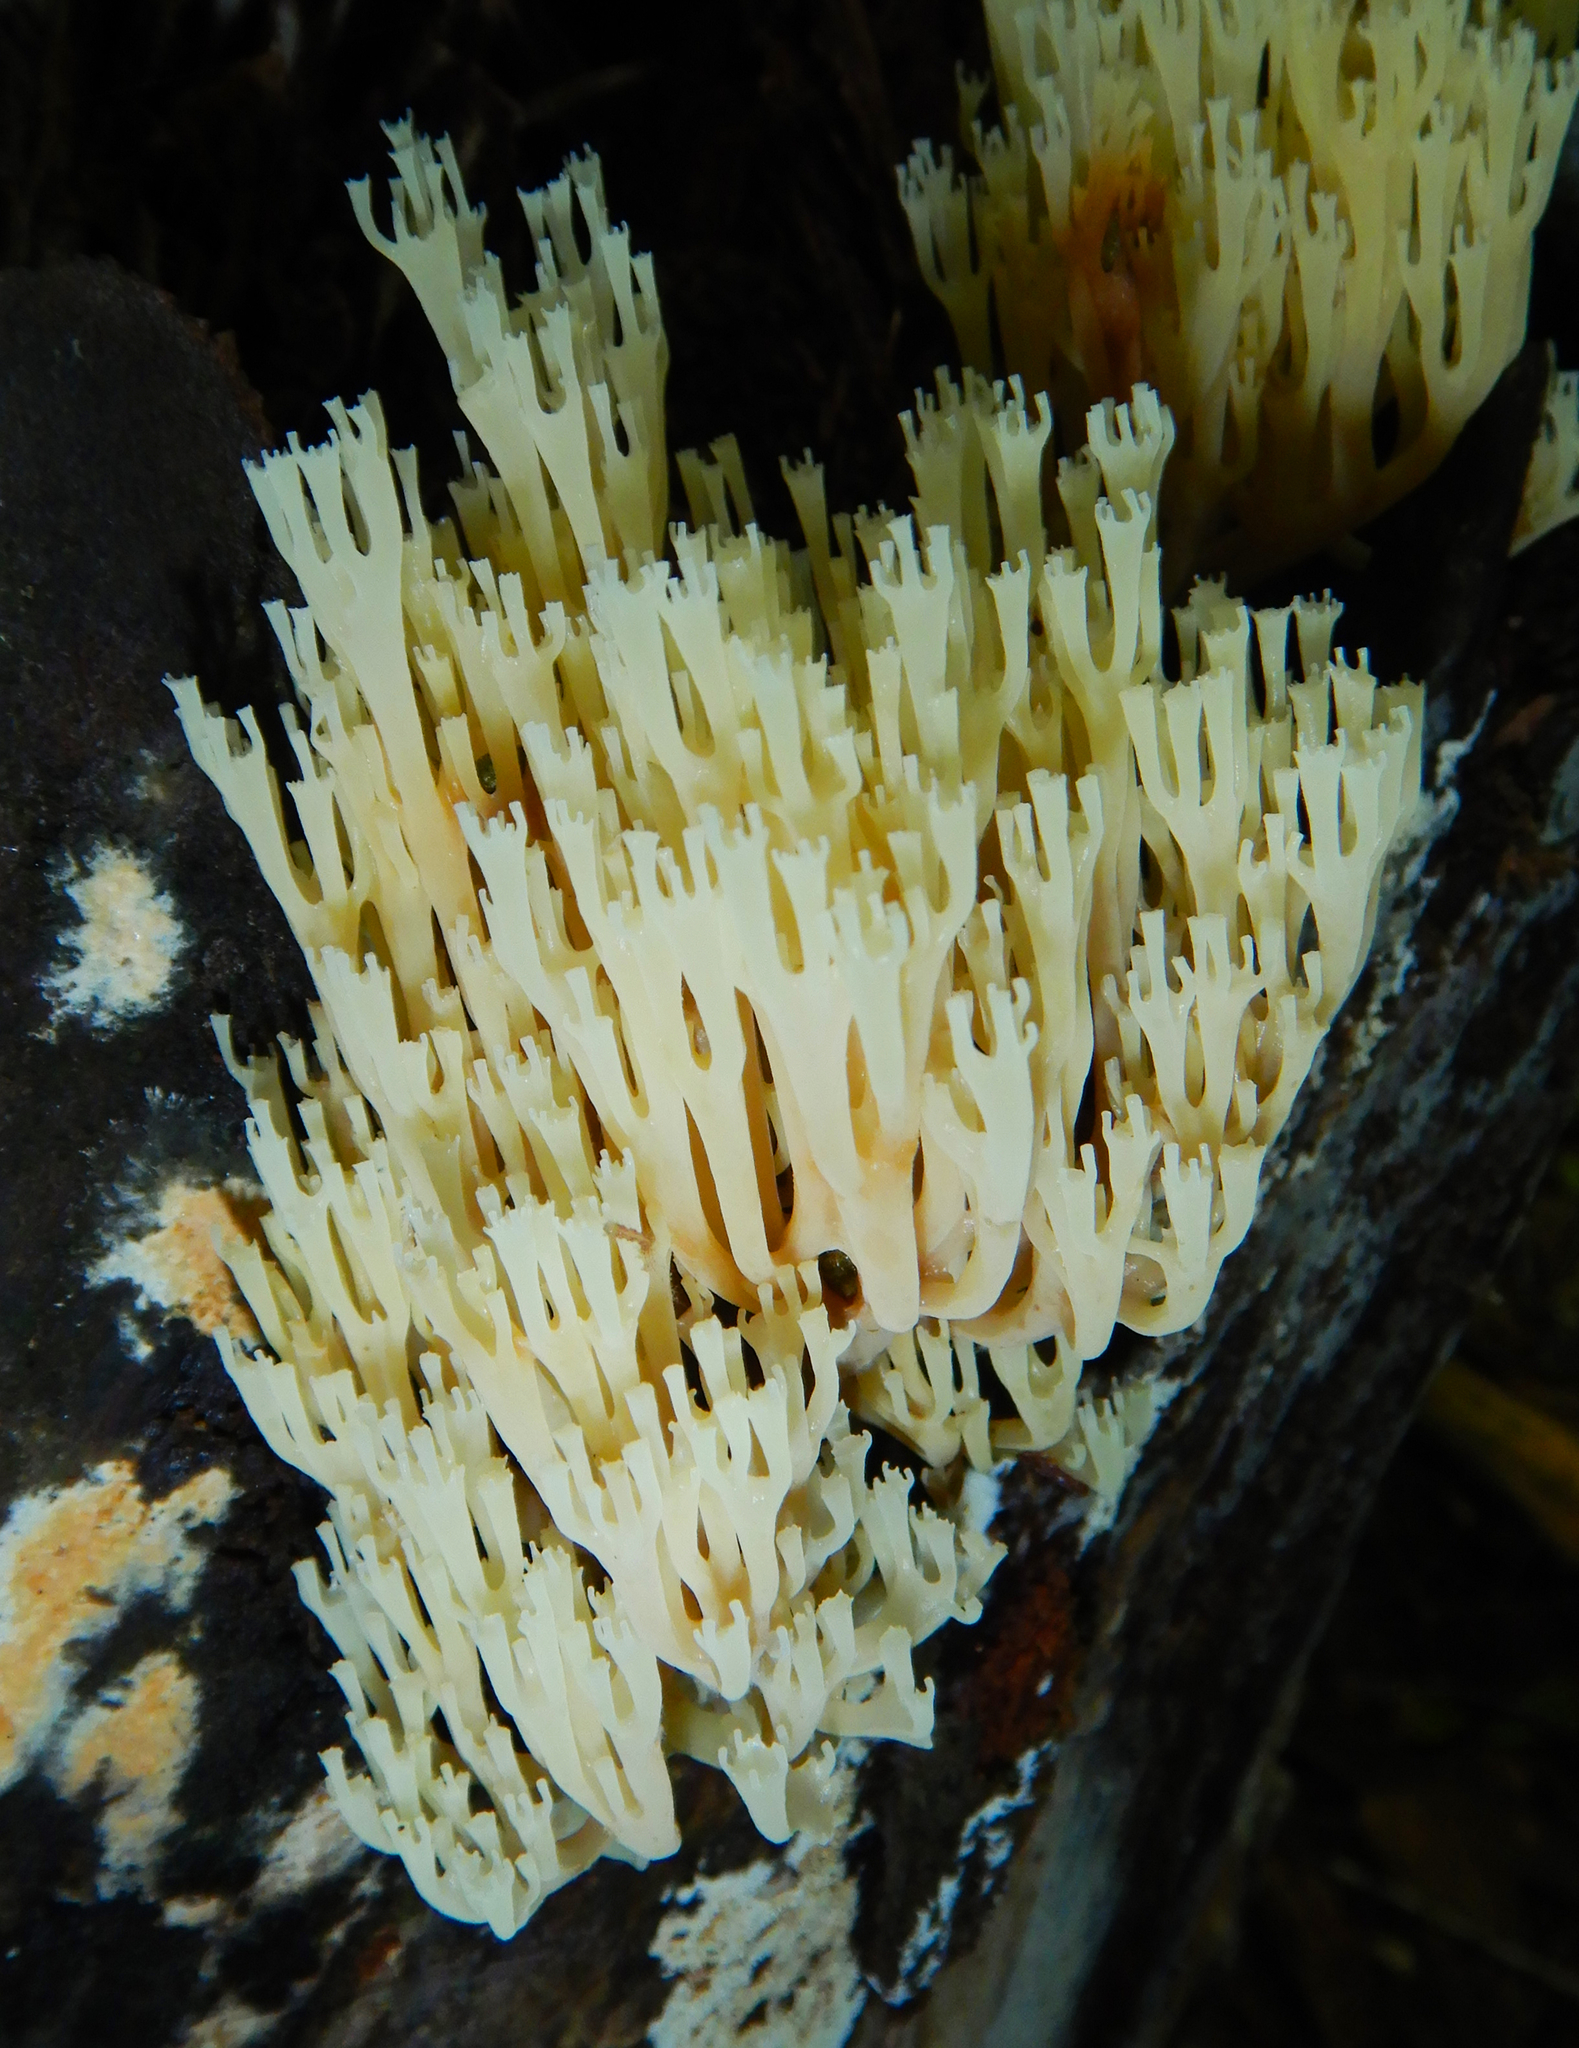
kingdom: Fungi
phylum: Basidiomycota
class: Agaricomycetes
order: Russulales
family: Auriscalpiaceae
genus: Artomyces
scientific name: Artomyces pyxidatus
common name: Crown-tipped coral fungus
